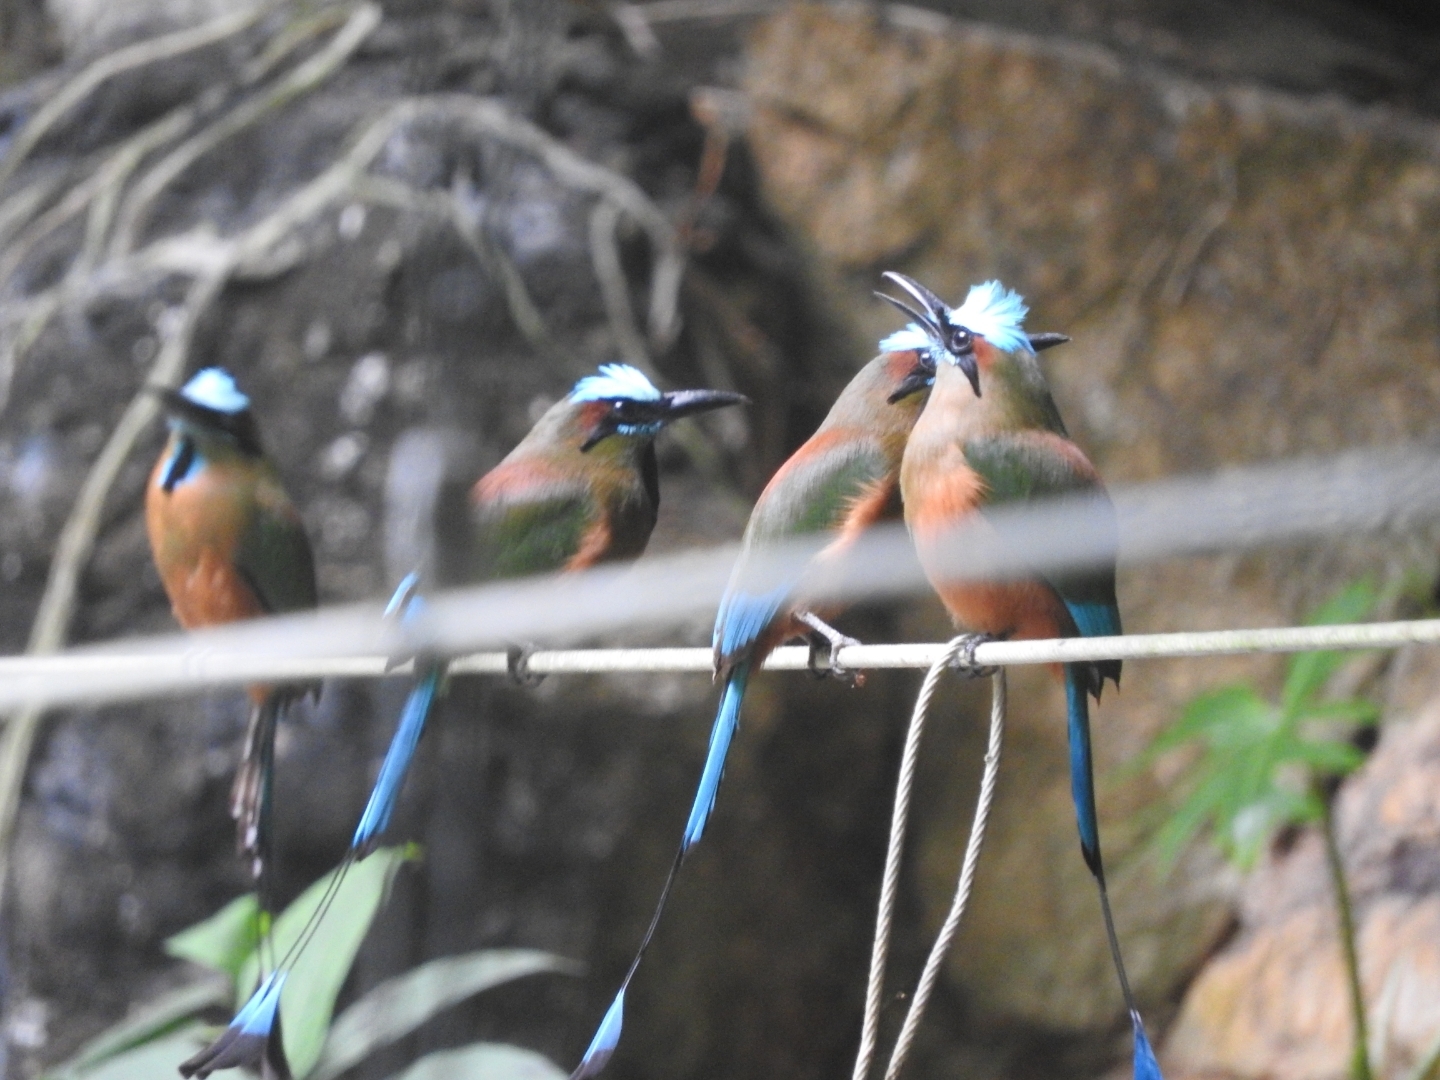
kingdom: Animalia
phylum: Chordata
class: Aves
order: Coraciiformes
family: Momotidae
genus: Eumomota
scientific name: Eumomota superciliosa
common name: Turquoise-browed motmot
